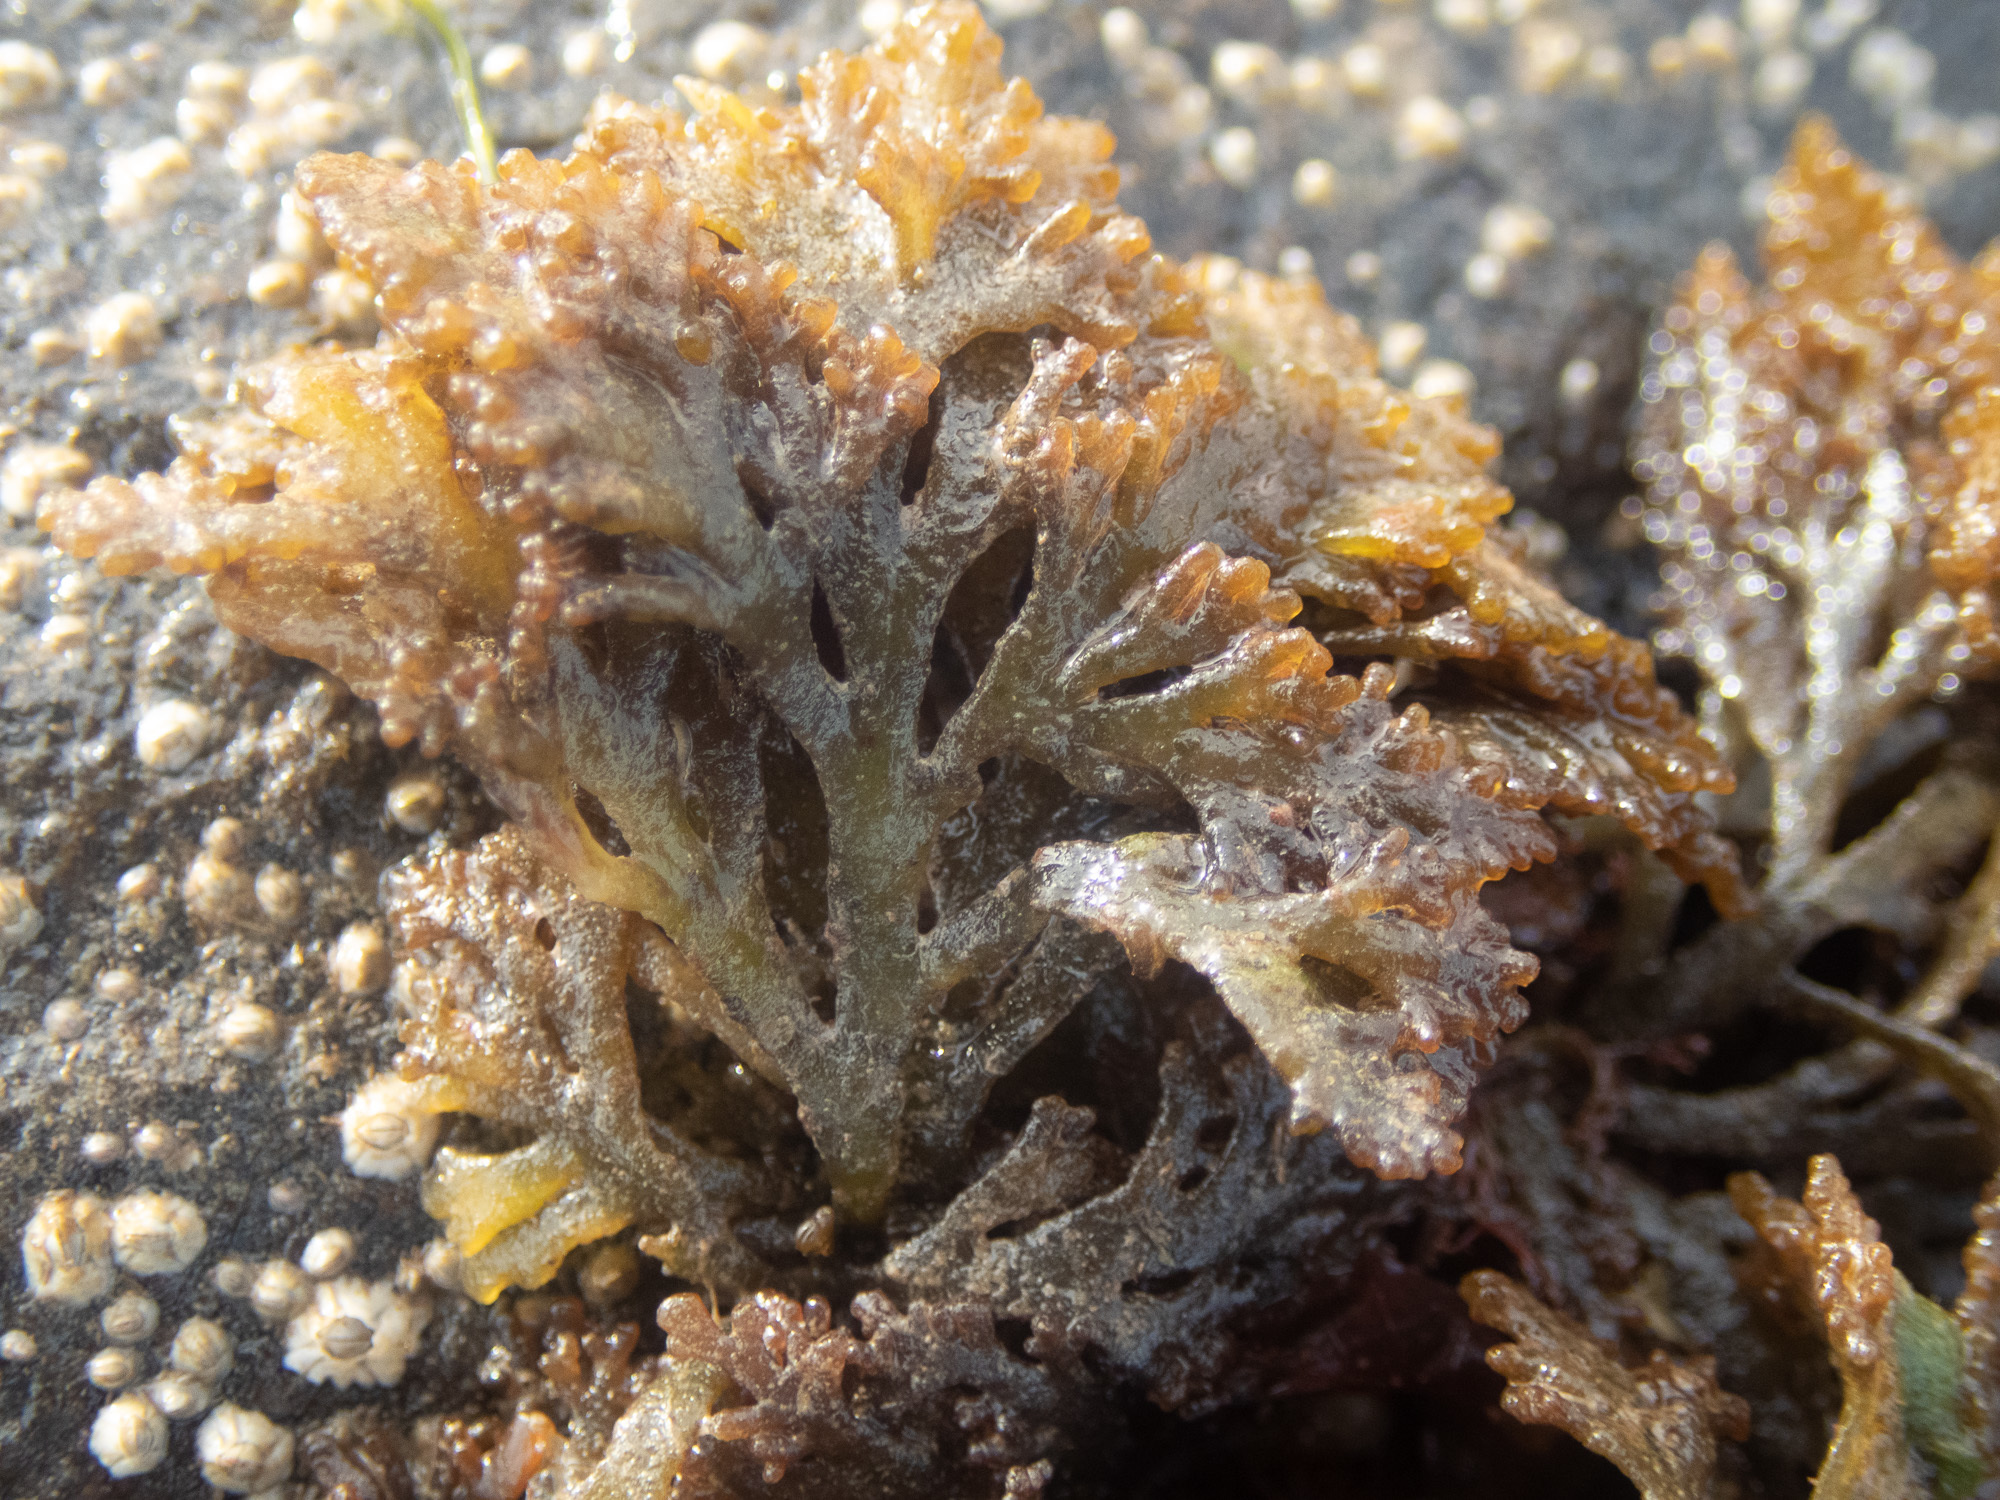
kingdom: Plantae
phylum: Rhodophyta
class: Florideophyceae
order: Ceramiales
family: Rhodomelaceae
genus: Laurencia
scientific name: Laurencia Osmundea pinnatifida
